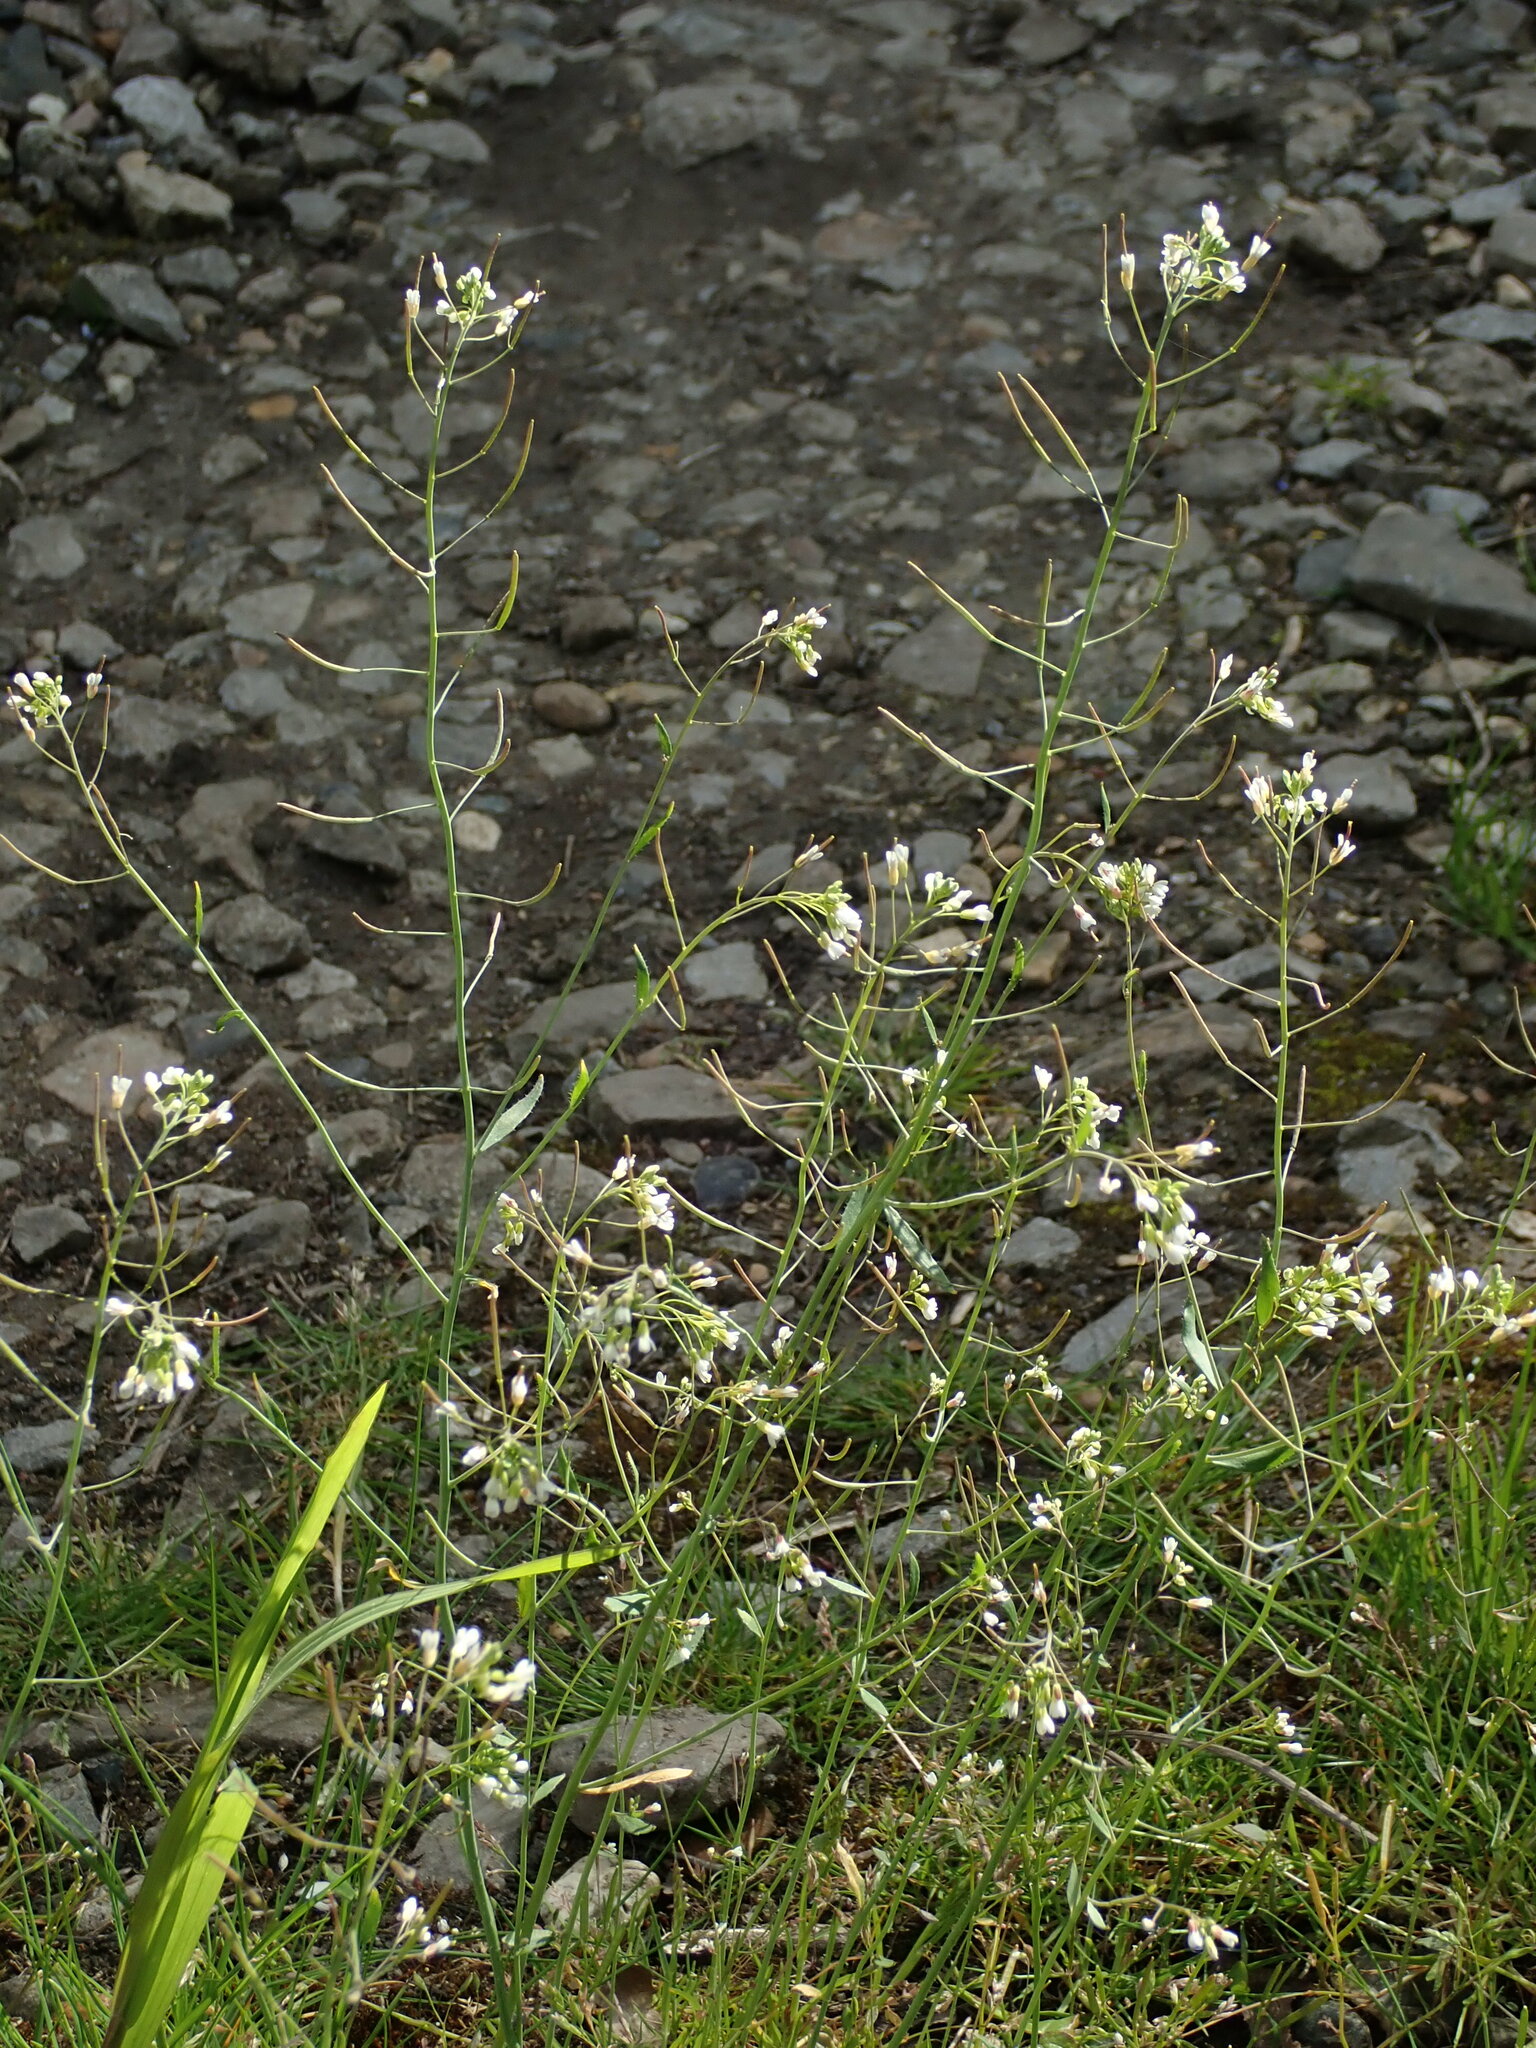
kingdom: Plantae
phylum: Tracheophyta
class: Magnoliopsida
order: Brassicales
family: Brassicaceae
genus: Arabidopsis
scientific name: Arabidopsis thaliana
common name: Thale cress
